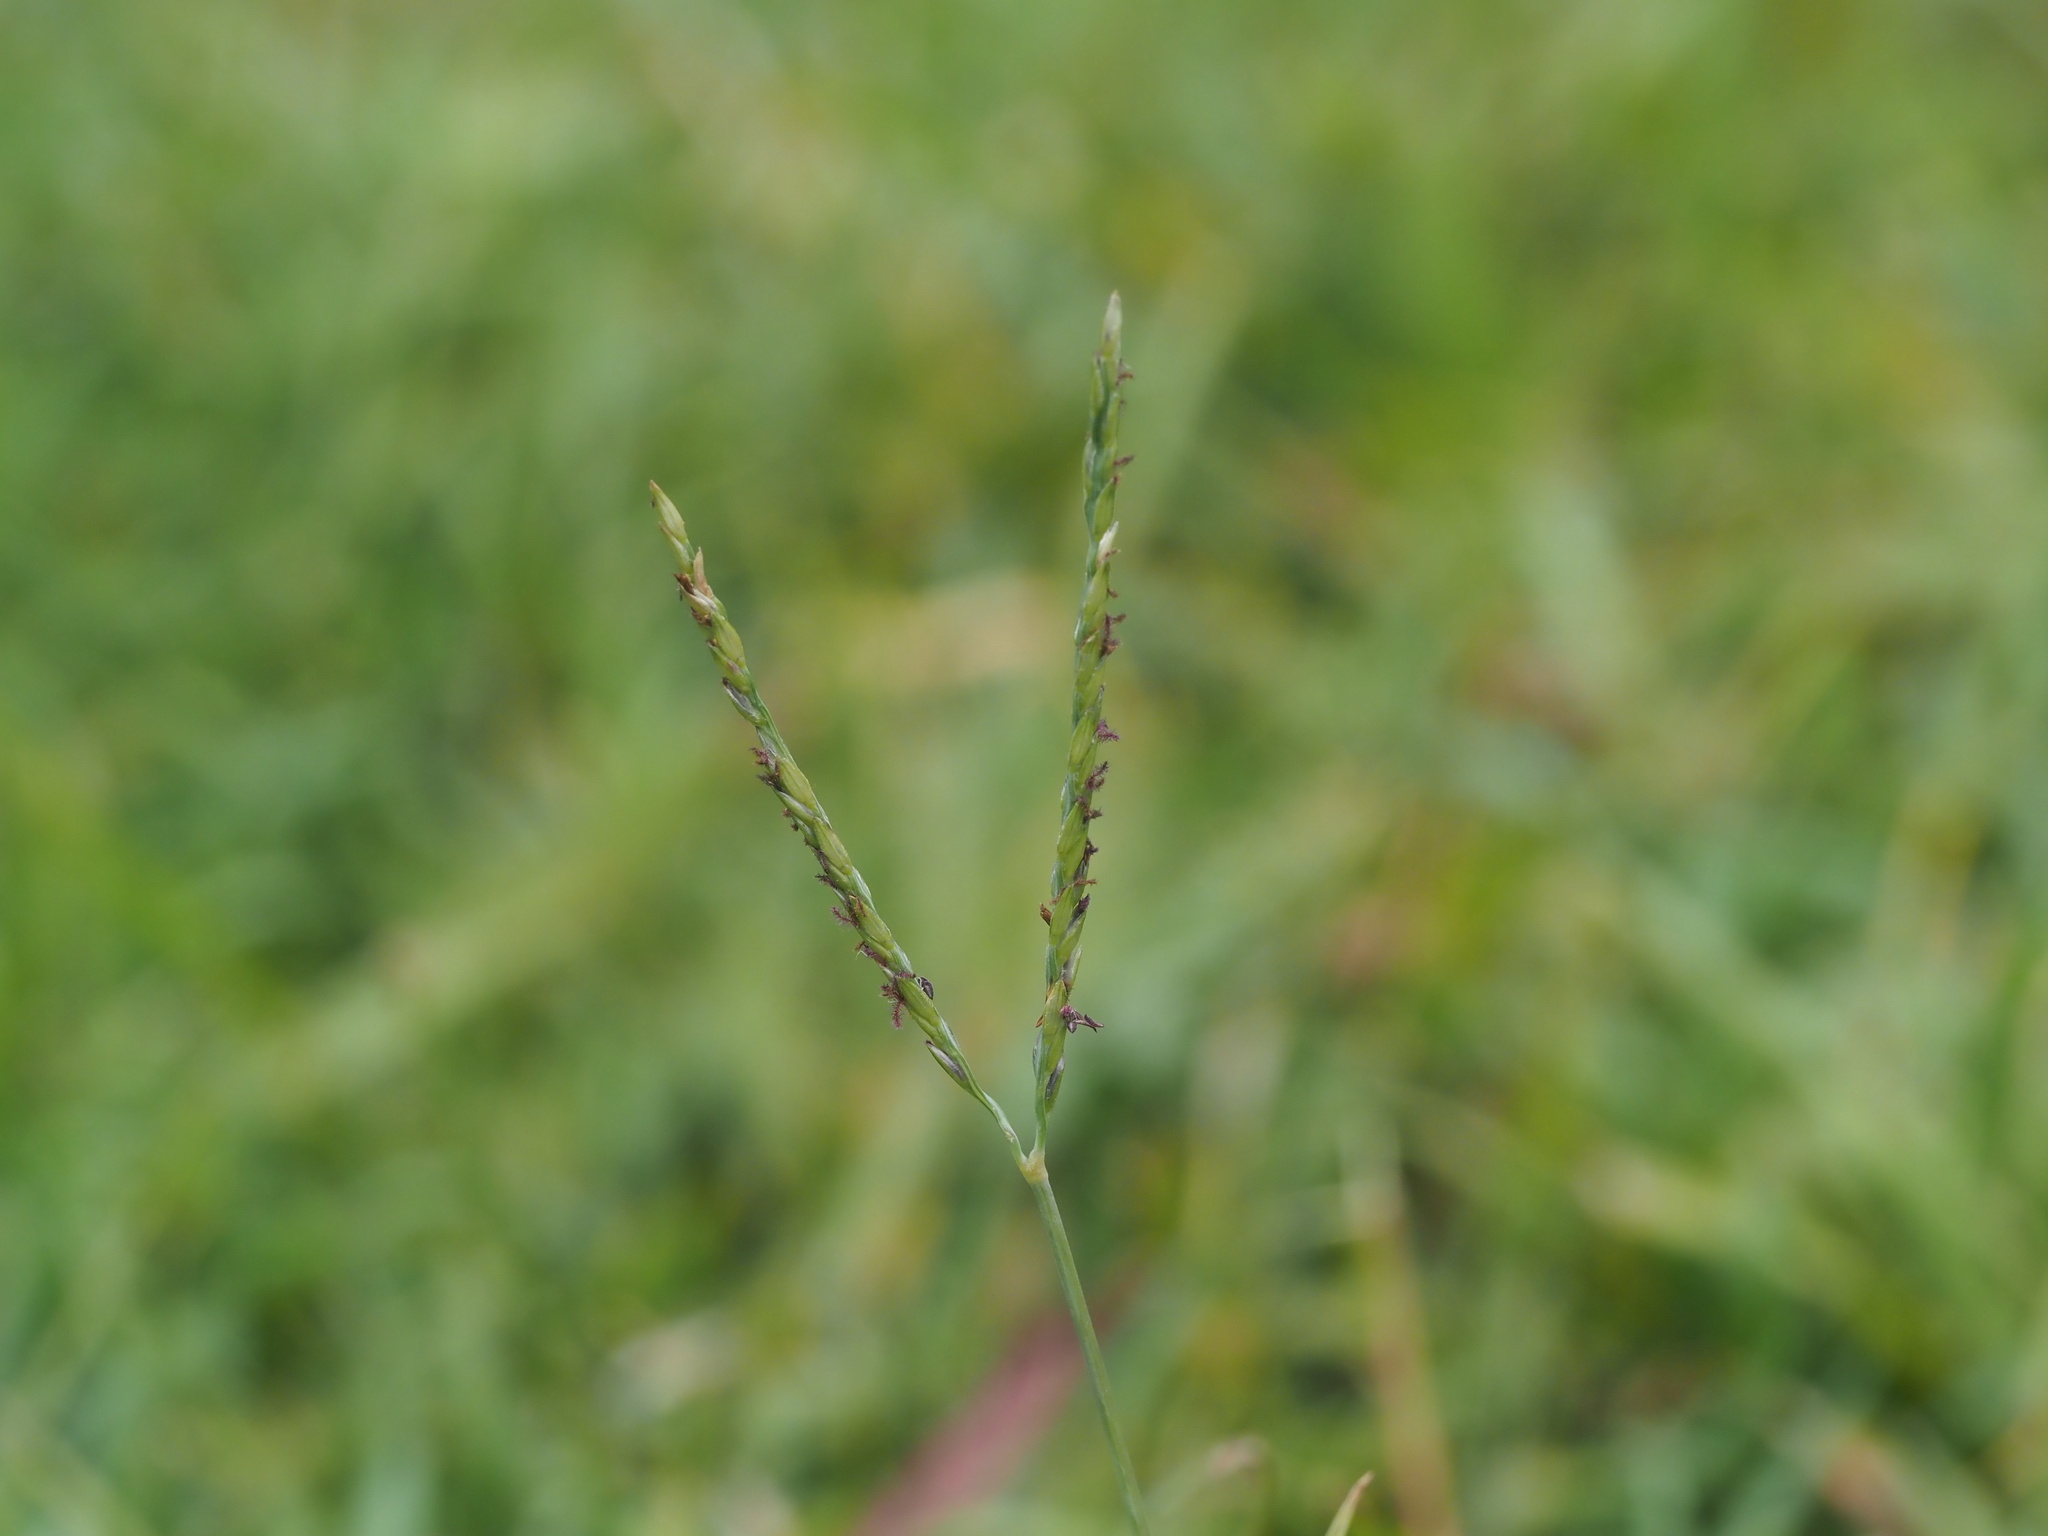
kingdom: Plantae
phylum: Tracheophyta
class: Liliopsida
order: Poales
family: Poaceae
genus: Digitaria
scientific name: Digitaria didactyla
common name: Blue couch
